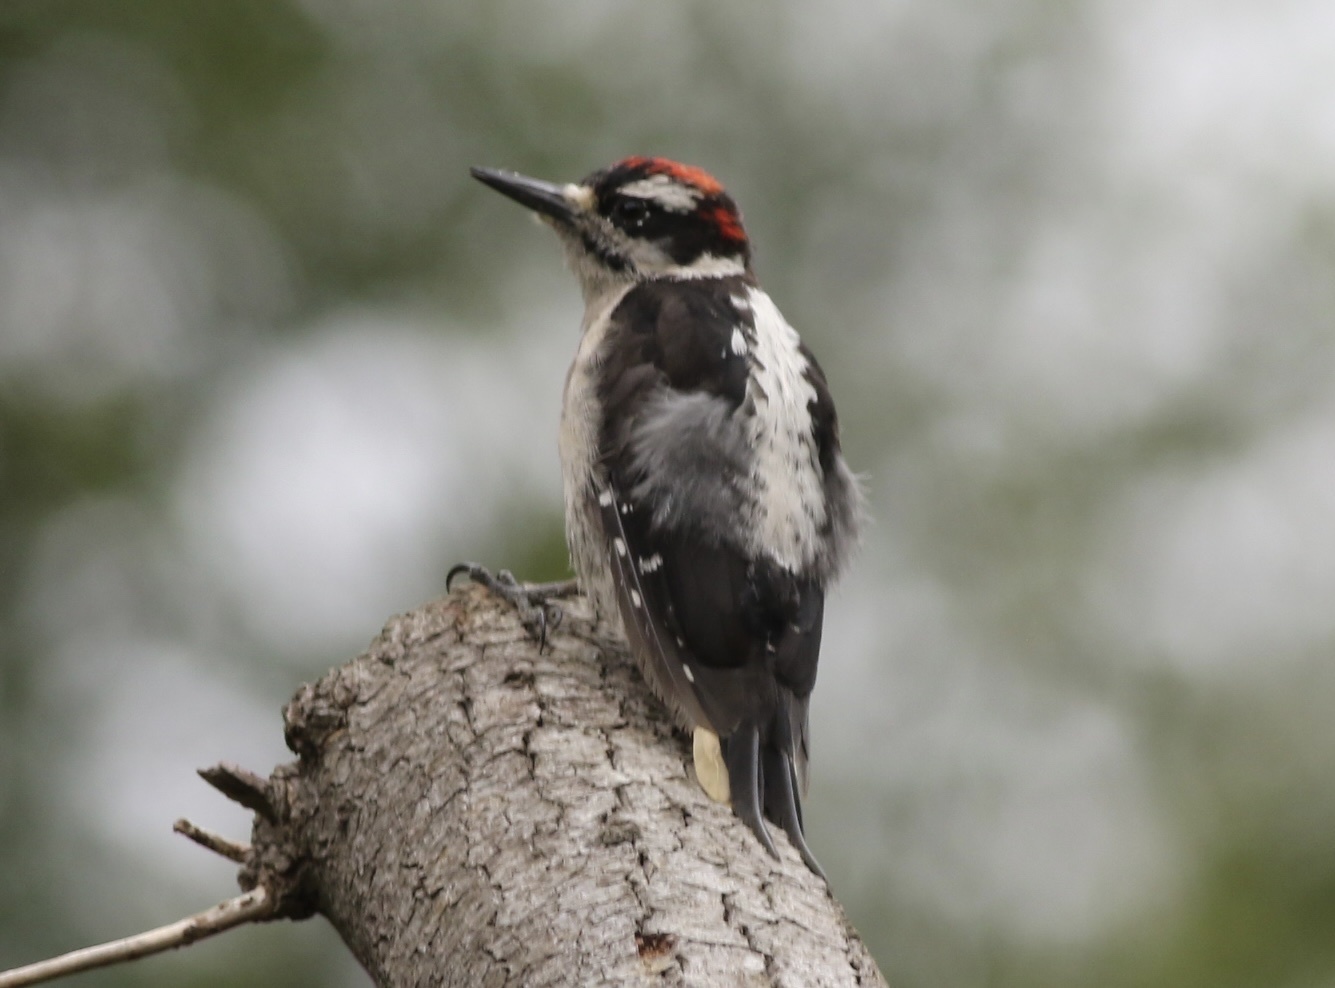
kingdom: Animalia
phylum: Chordata
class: Aves
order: Piciformes
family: Picidae
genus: Leuconotopicus
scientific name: Leuconotopicus villosus
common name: Hairy woodpecker
